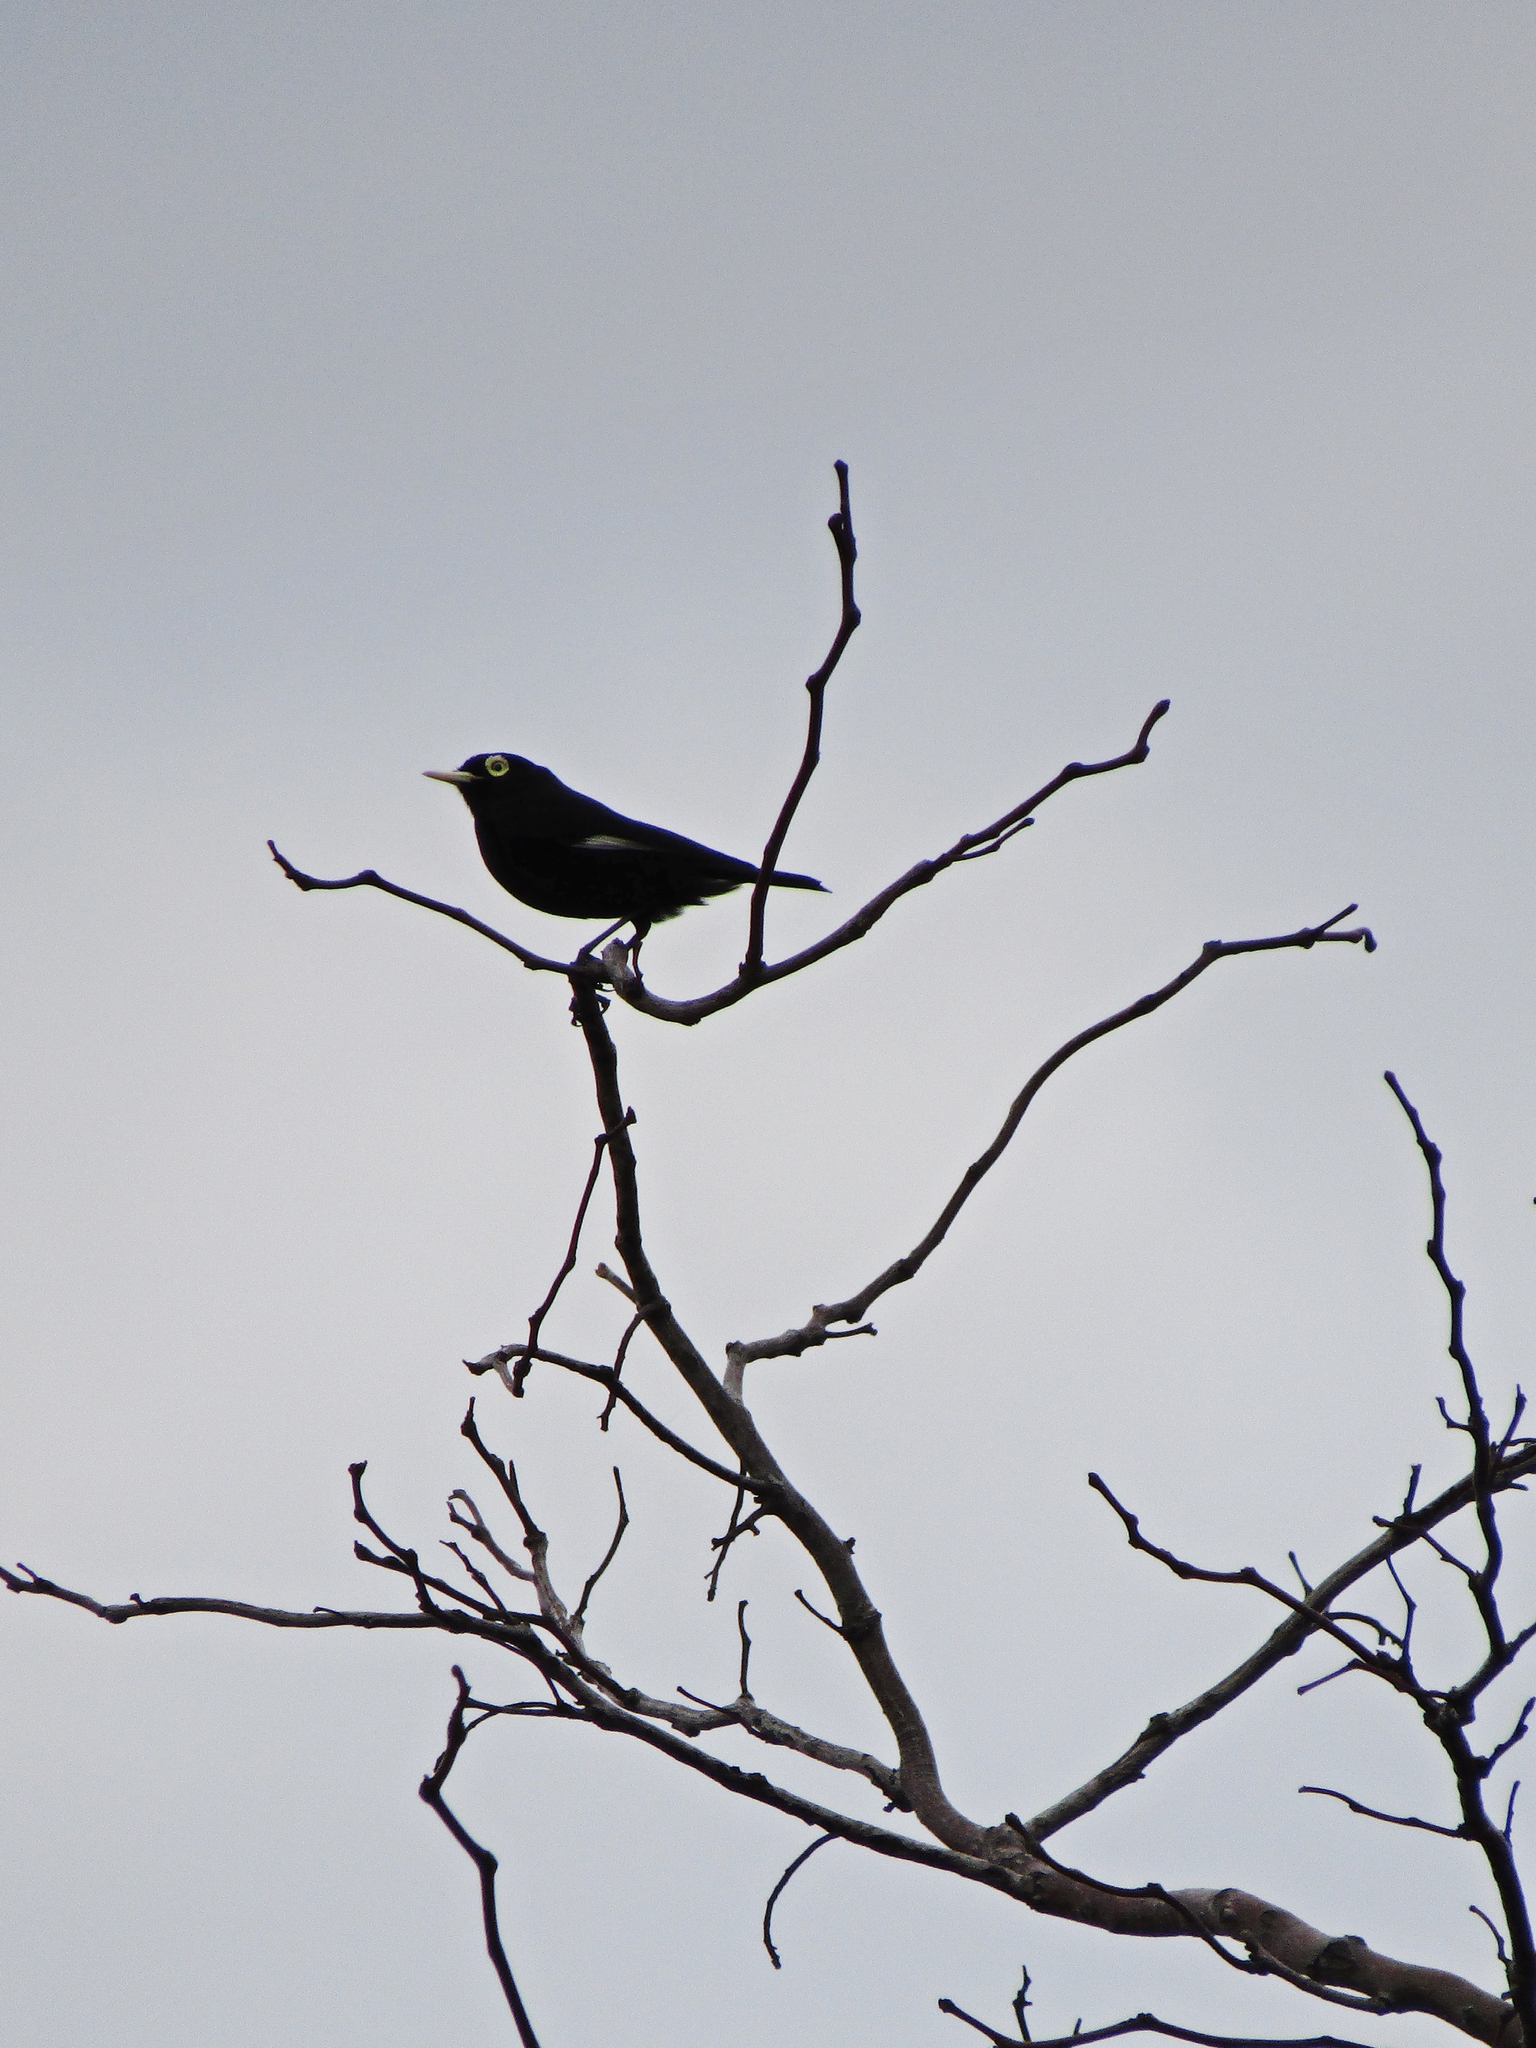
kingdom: Animalia
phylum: Chordata
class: Aves
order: Passeriformes
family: Tyrannidae
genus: Hymenops
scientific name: Hymenops perspicillatus
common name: Spectacled tyrant
